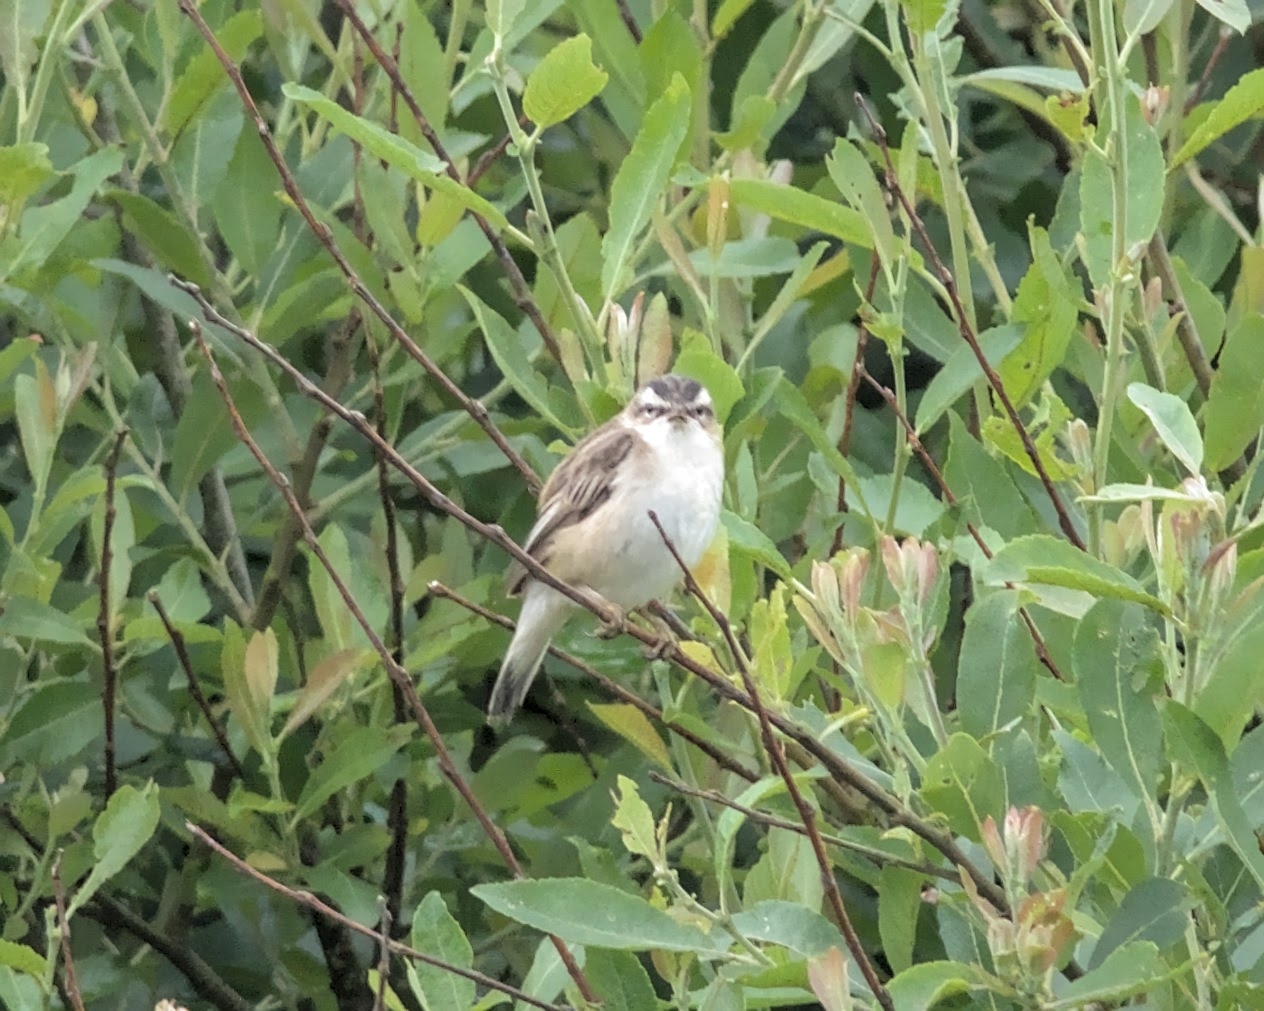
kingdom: Animalia
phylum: Chordata
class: Aves
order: Passeriformes
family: Acrocephalidae
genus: Acrocephalus
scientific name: Acrocephalus schoenobaenus
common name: Sedge warbler
